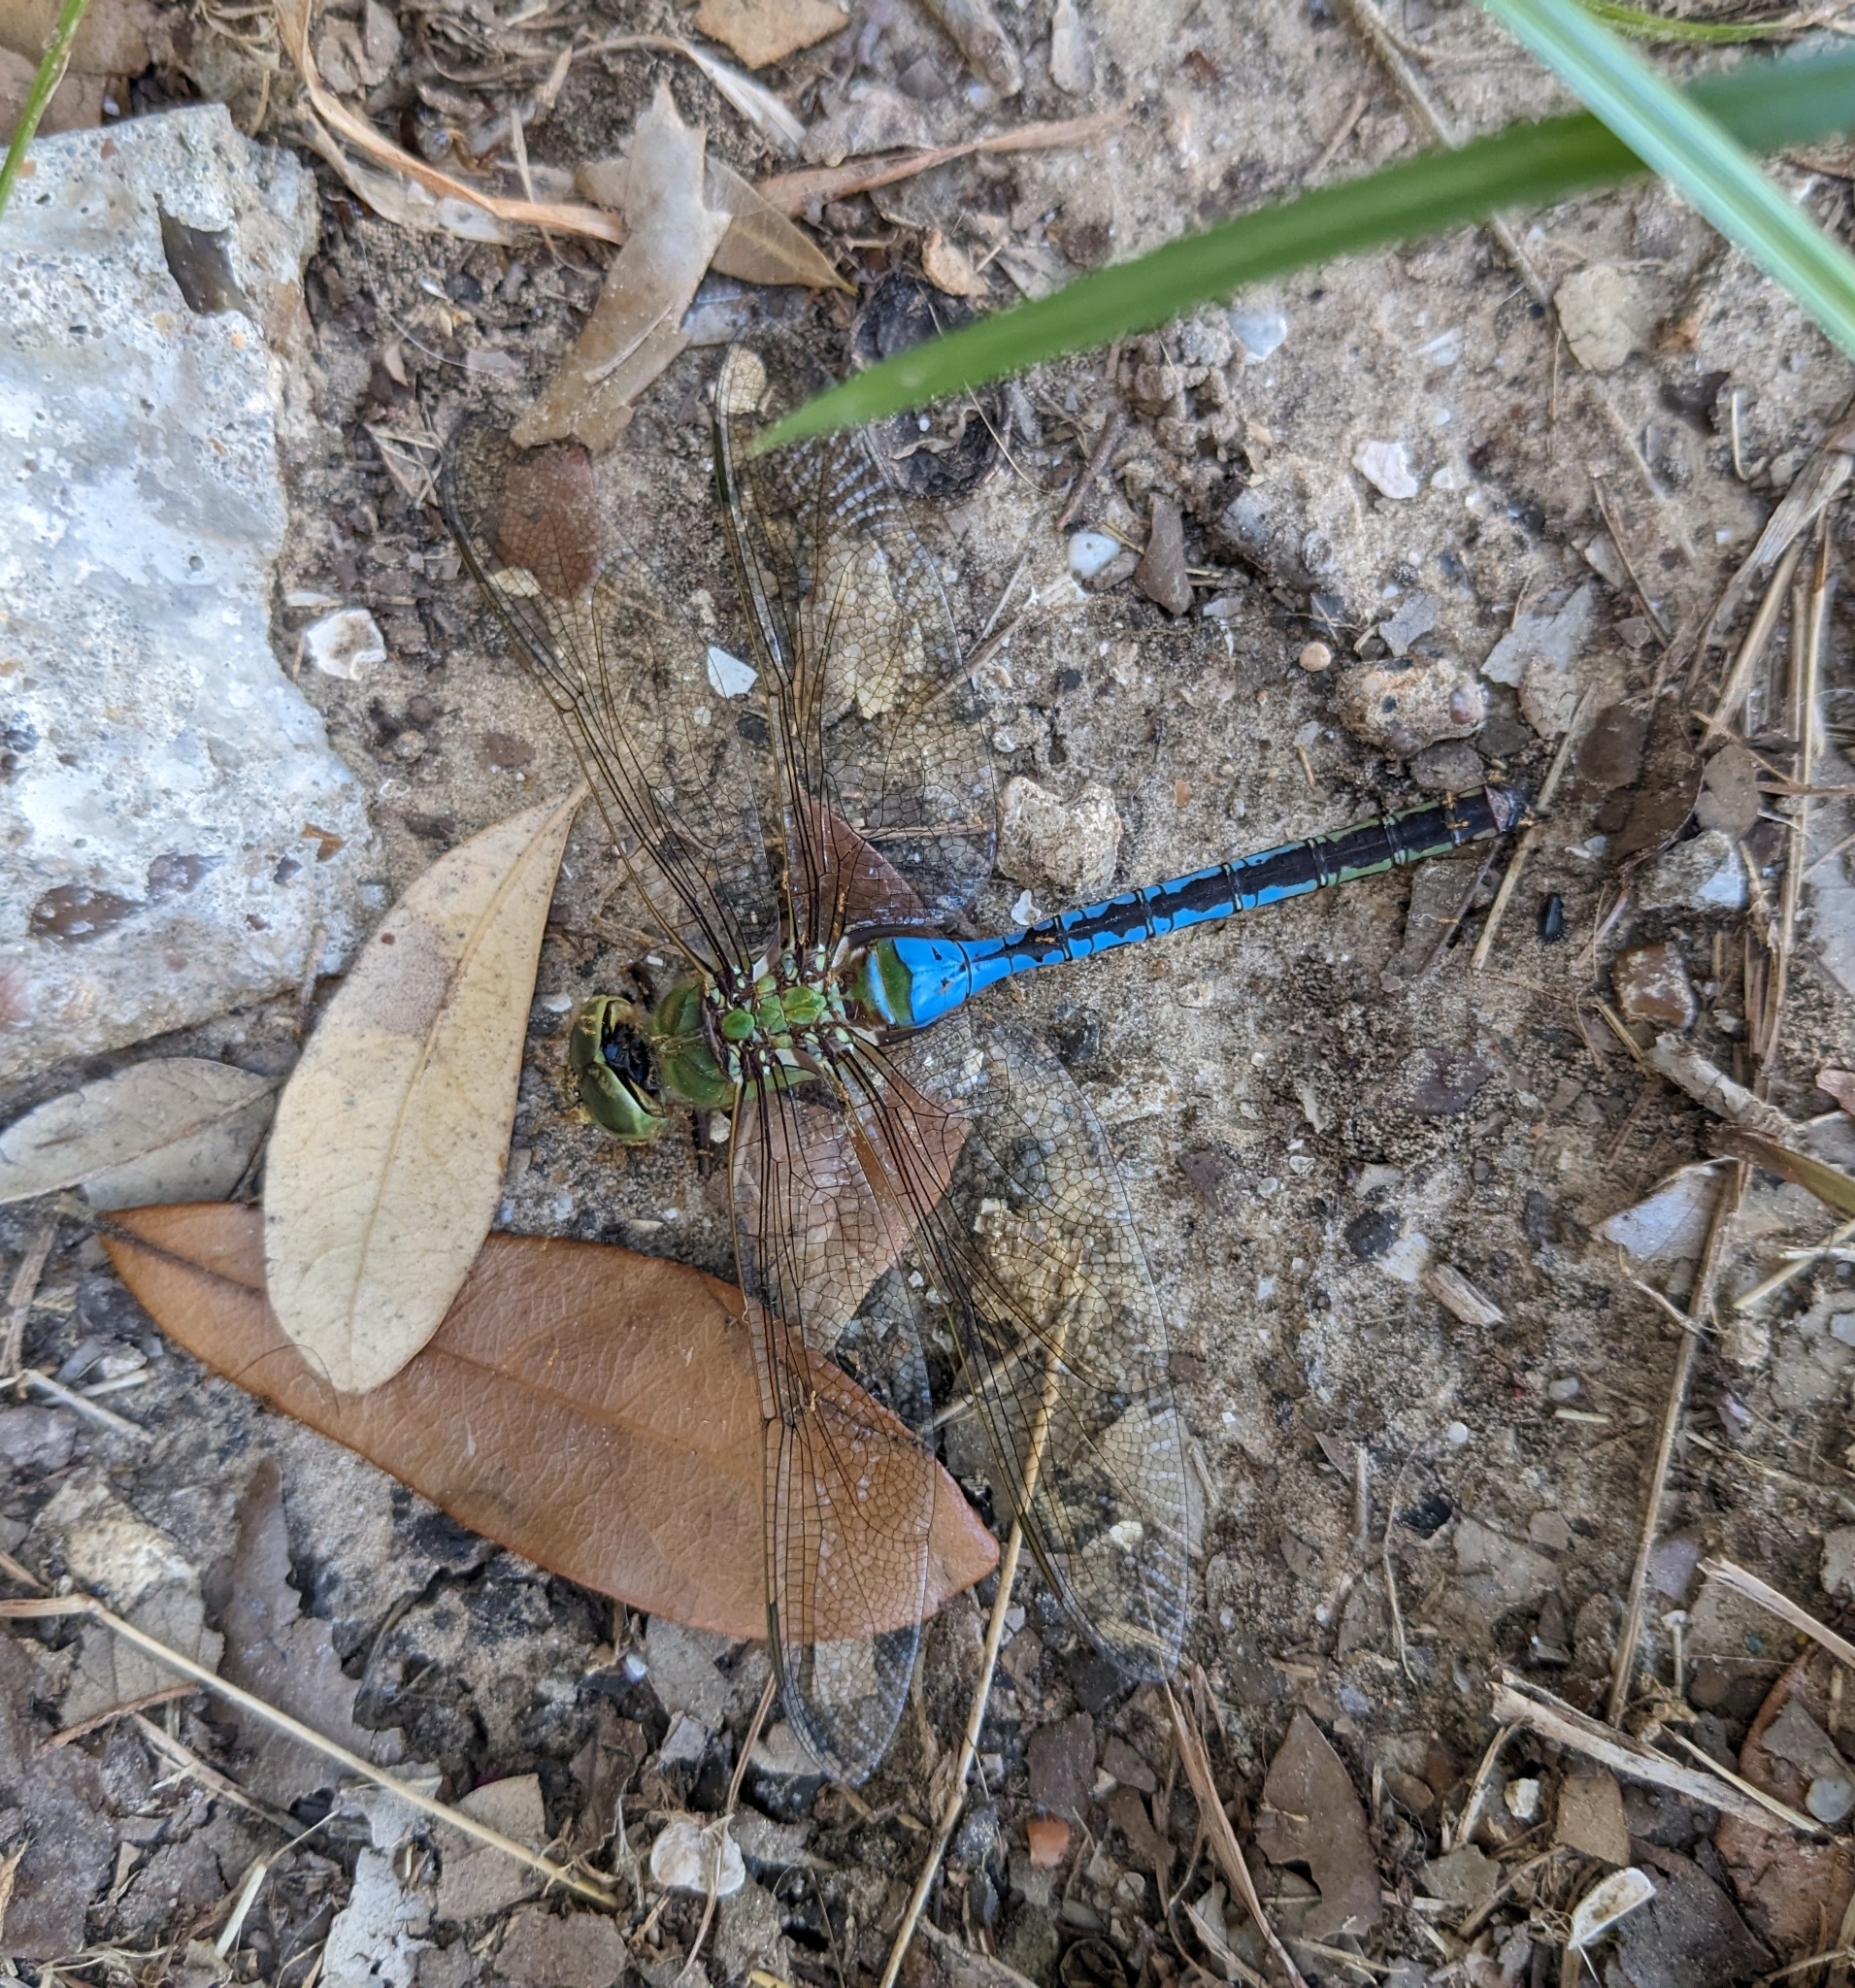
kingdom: Animalia
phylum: Arthropoda
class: Insecta
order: Odonata
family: Aeshnidae
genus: Anax
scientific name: Anax junius
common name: Common green darner
